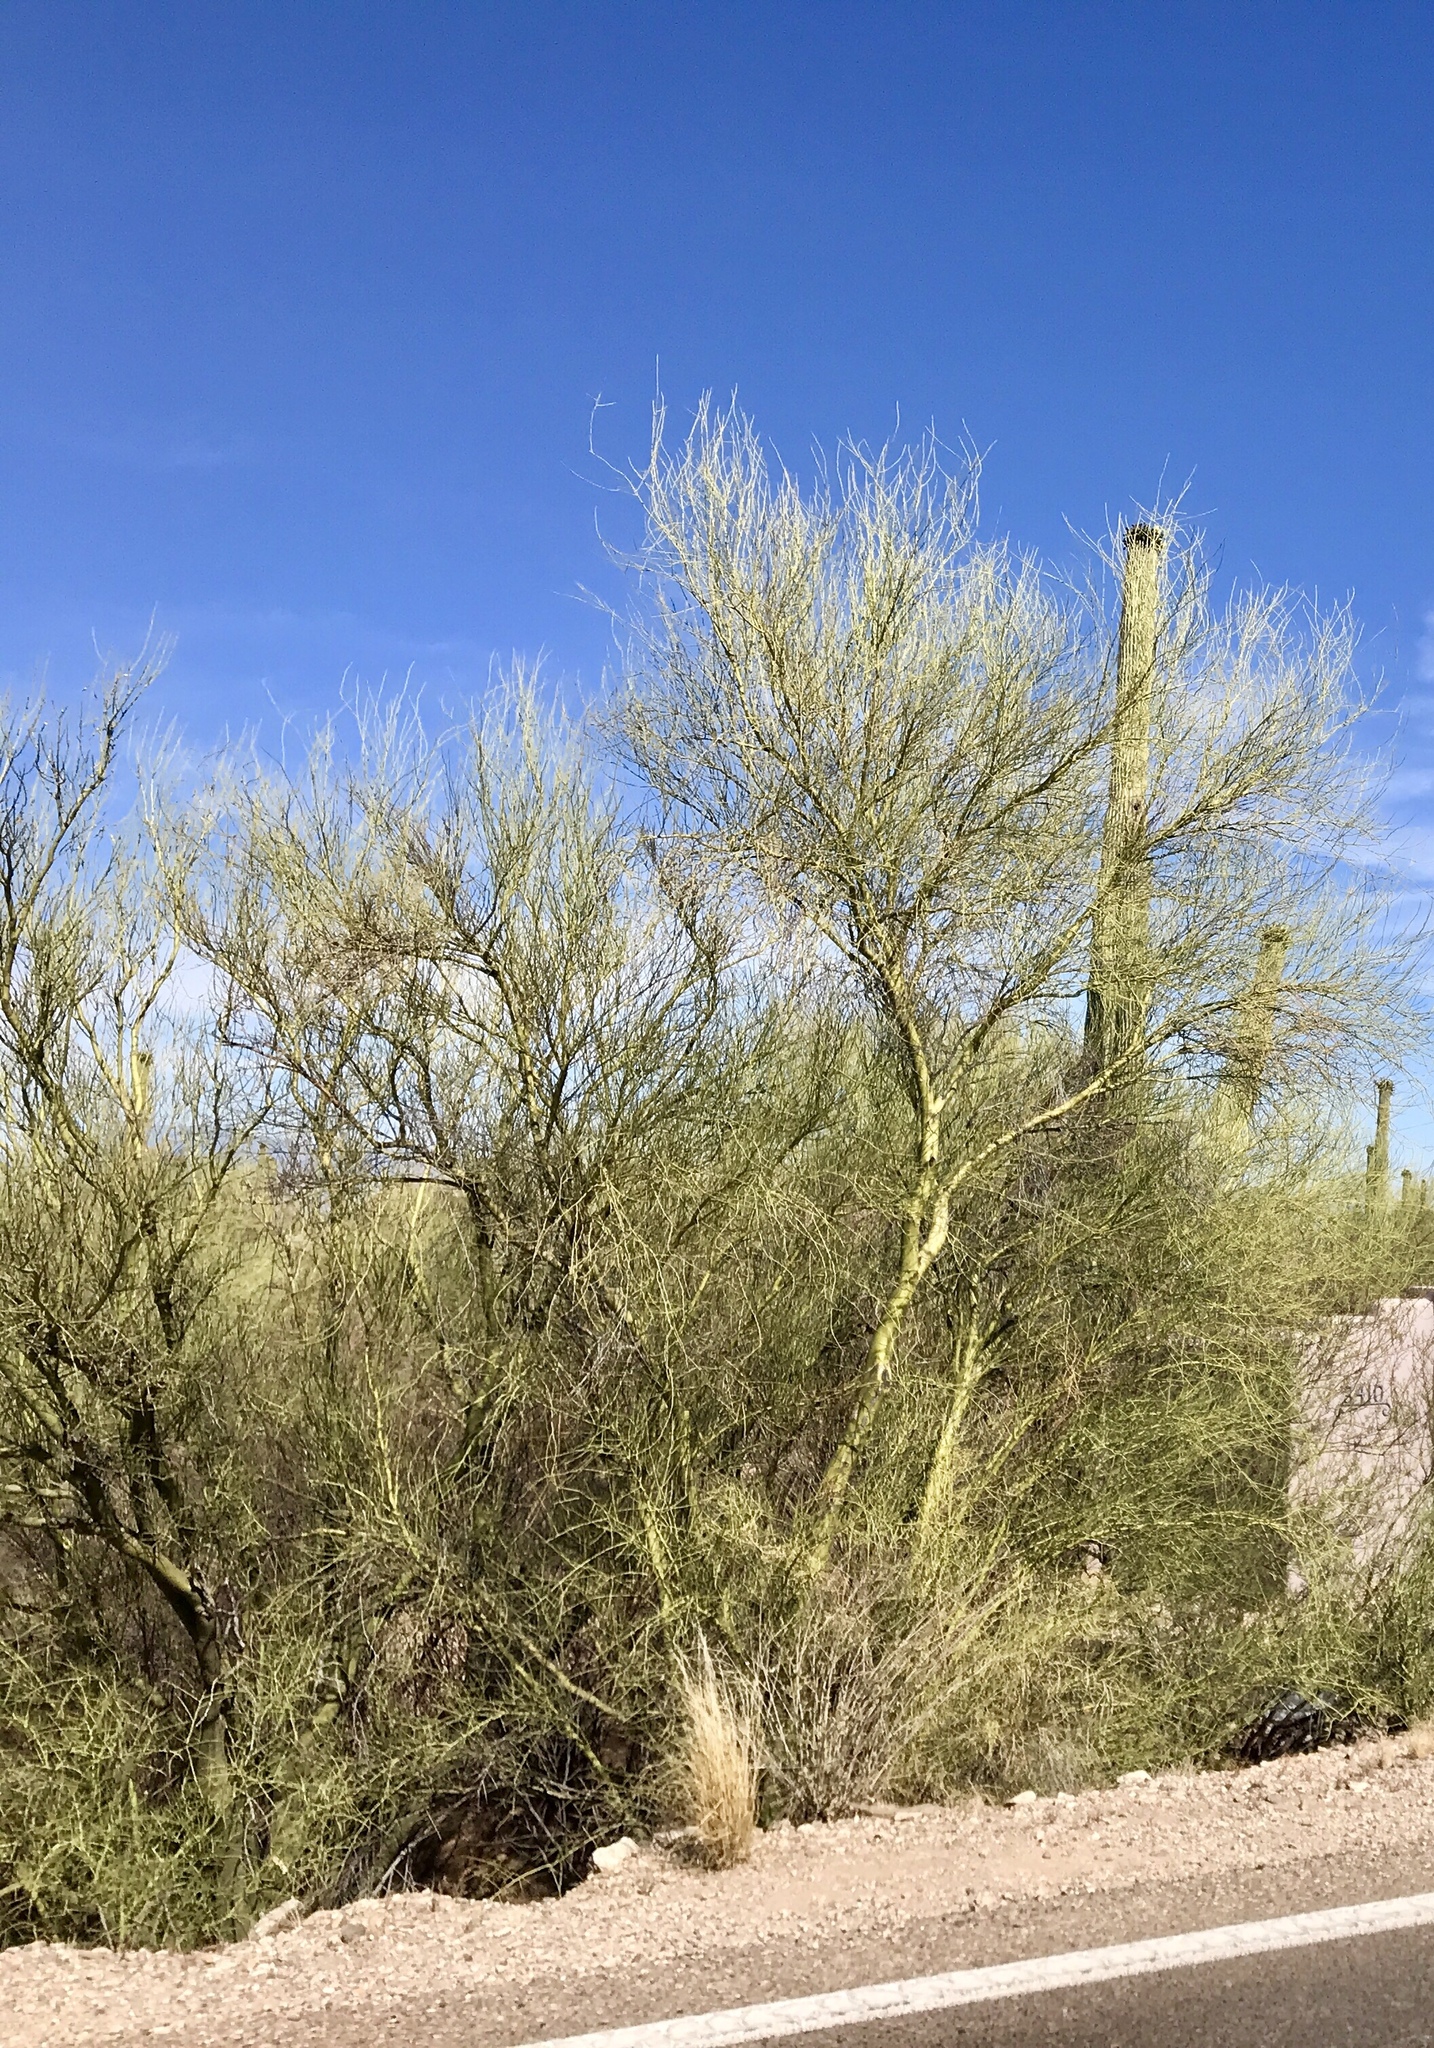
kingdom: Plantae
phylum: Tracheophyta
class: Magnoliopsida
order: Fabales
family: Fabaceae
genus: Parkinsonia
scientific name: Parkinsonia microphylla
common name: Yellow paloverde
